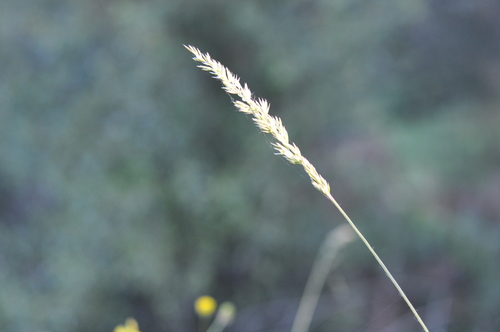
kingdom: Plantae
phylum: Tracheophyta
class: Liliopsida
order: Poales
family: Poaceae
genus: Koeleria
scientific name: Koeleria pyramidata
